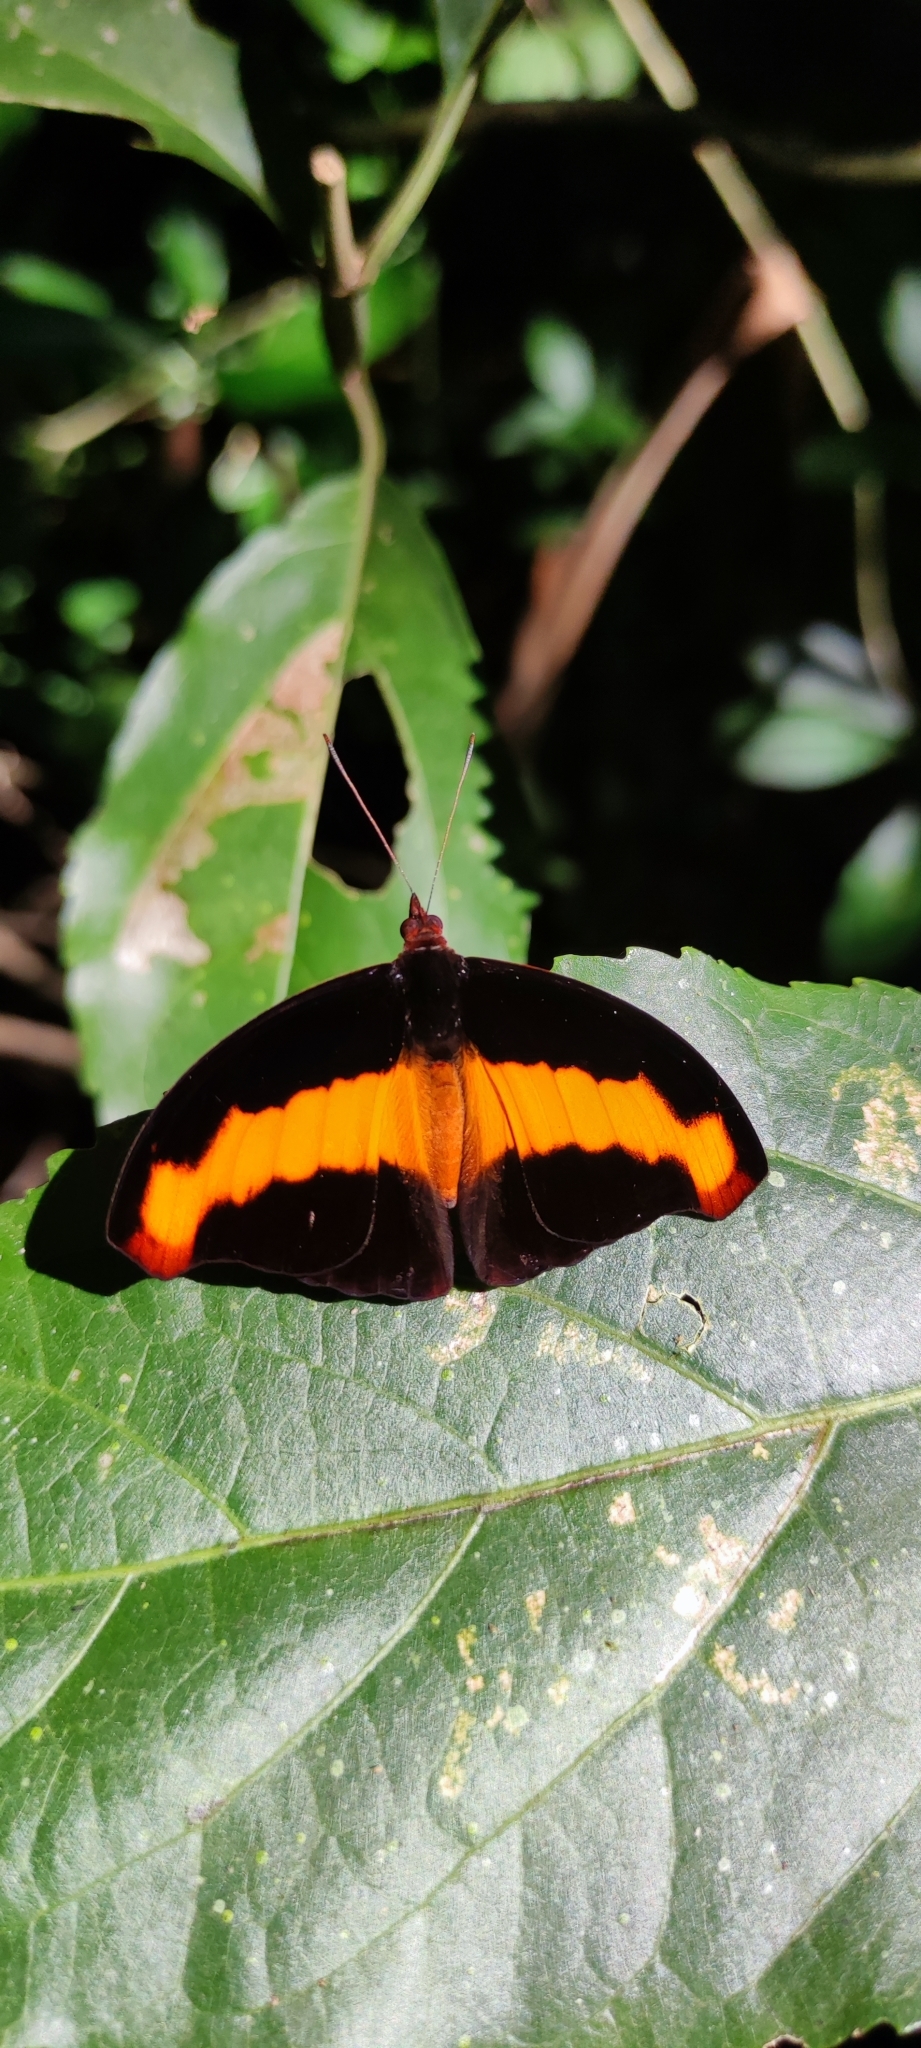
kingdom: Animalia
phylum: Arthropoda
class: Insecta
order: Lepidoptera
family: Nymphalidae
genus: Catonephele
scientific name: Catonephele mexicana
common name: Guatemalan catone
